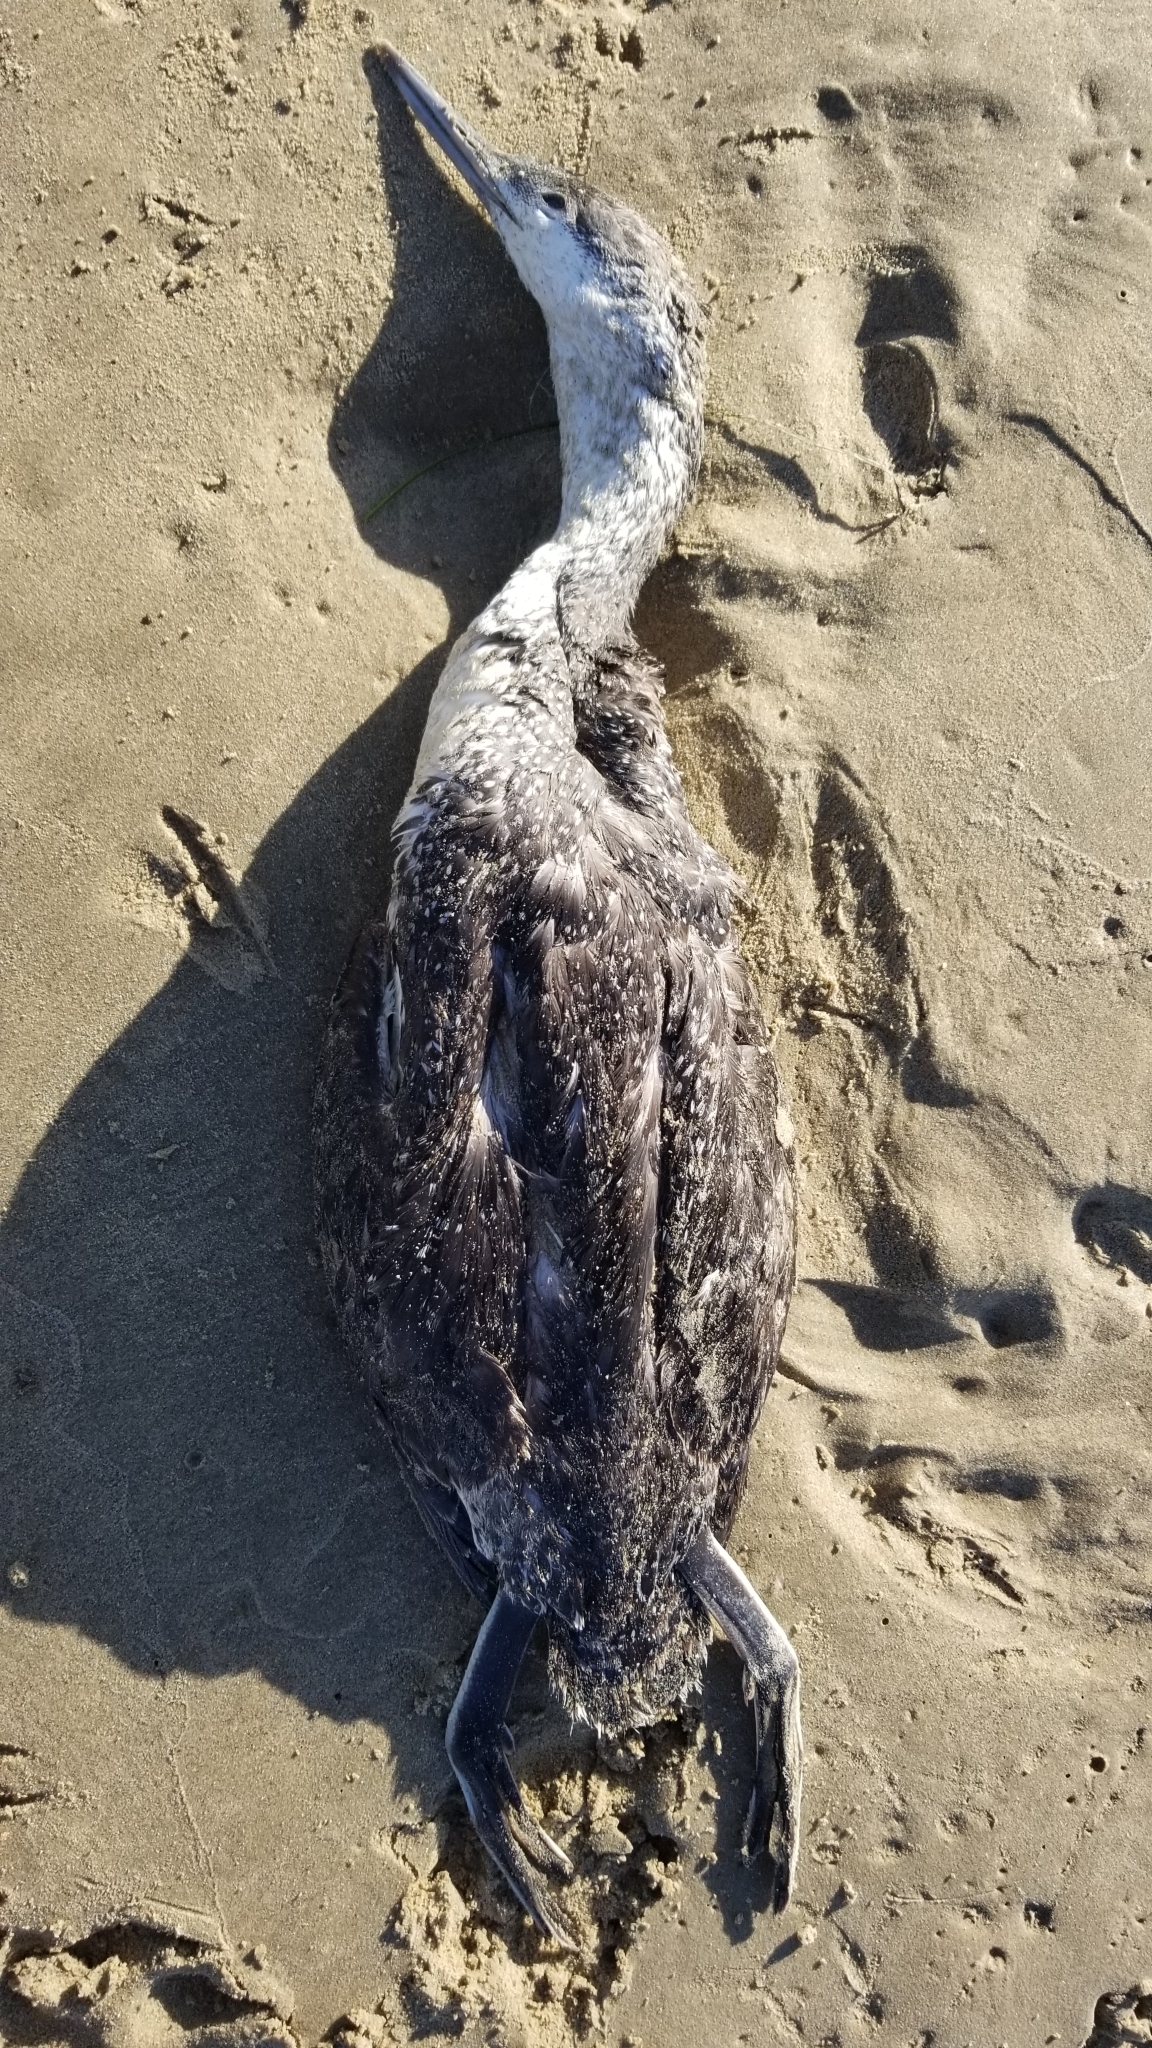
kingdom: Animalia
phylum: Chordata
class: Aves
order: Gaviiformes
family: Gaviidae
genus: Gavia
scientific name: Gavia stellata
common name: Red-throated loon
